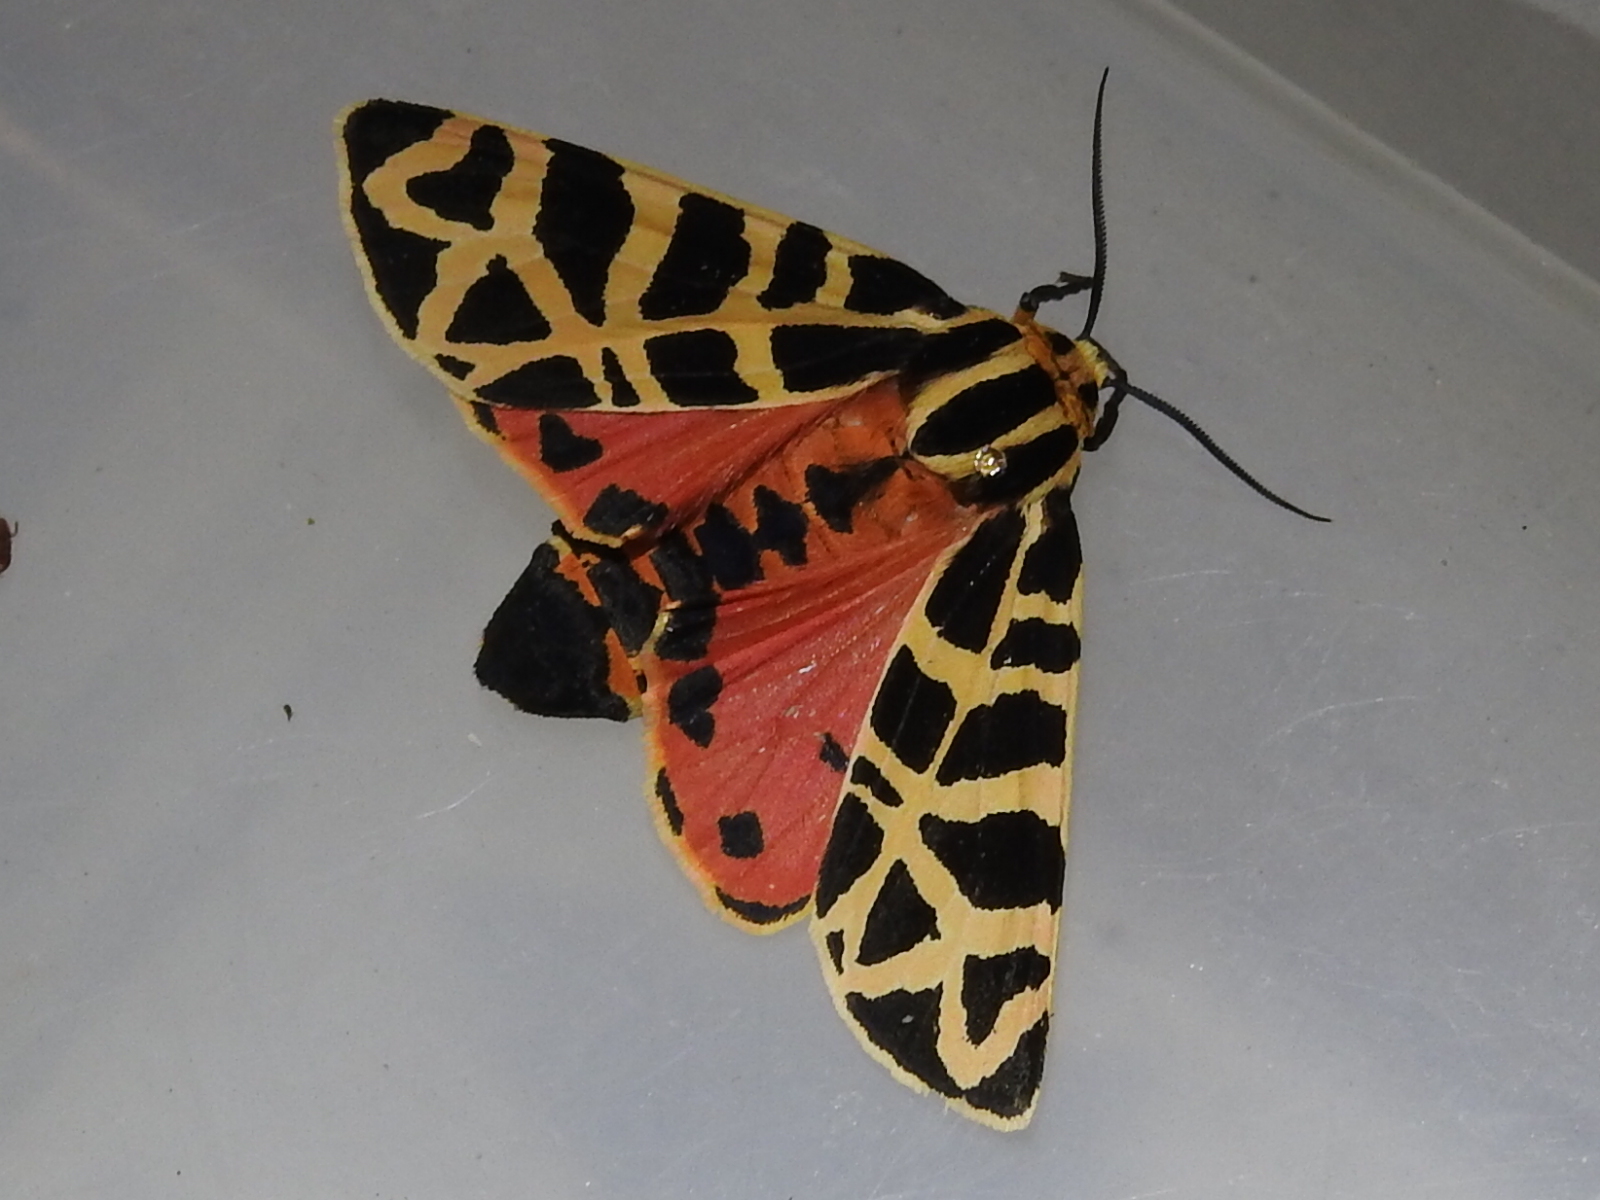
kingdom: Animalia
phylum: Arthropoda
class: Insecta
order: Lepidoptera
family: Erebidae
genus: Apantesis
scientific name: Apantesis incorrupta
